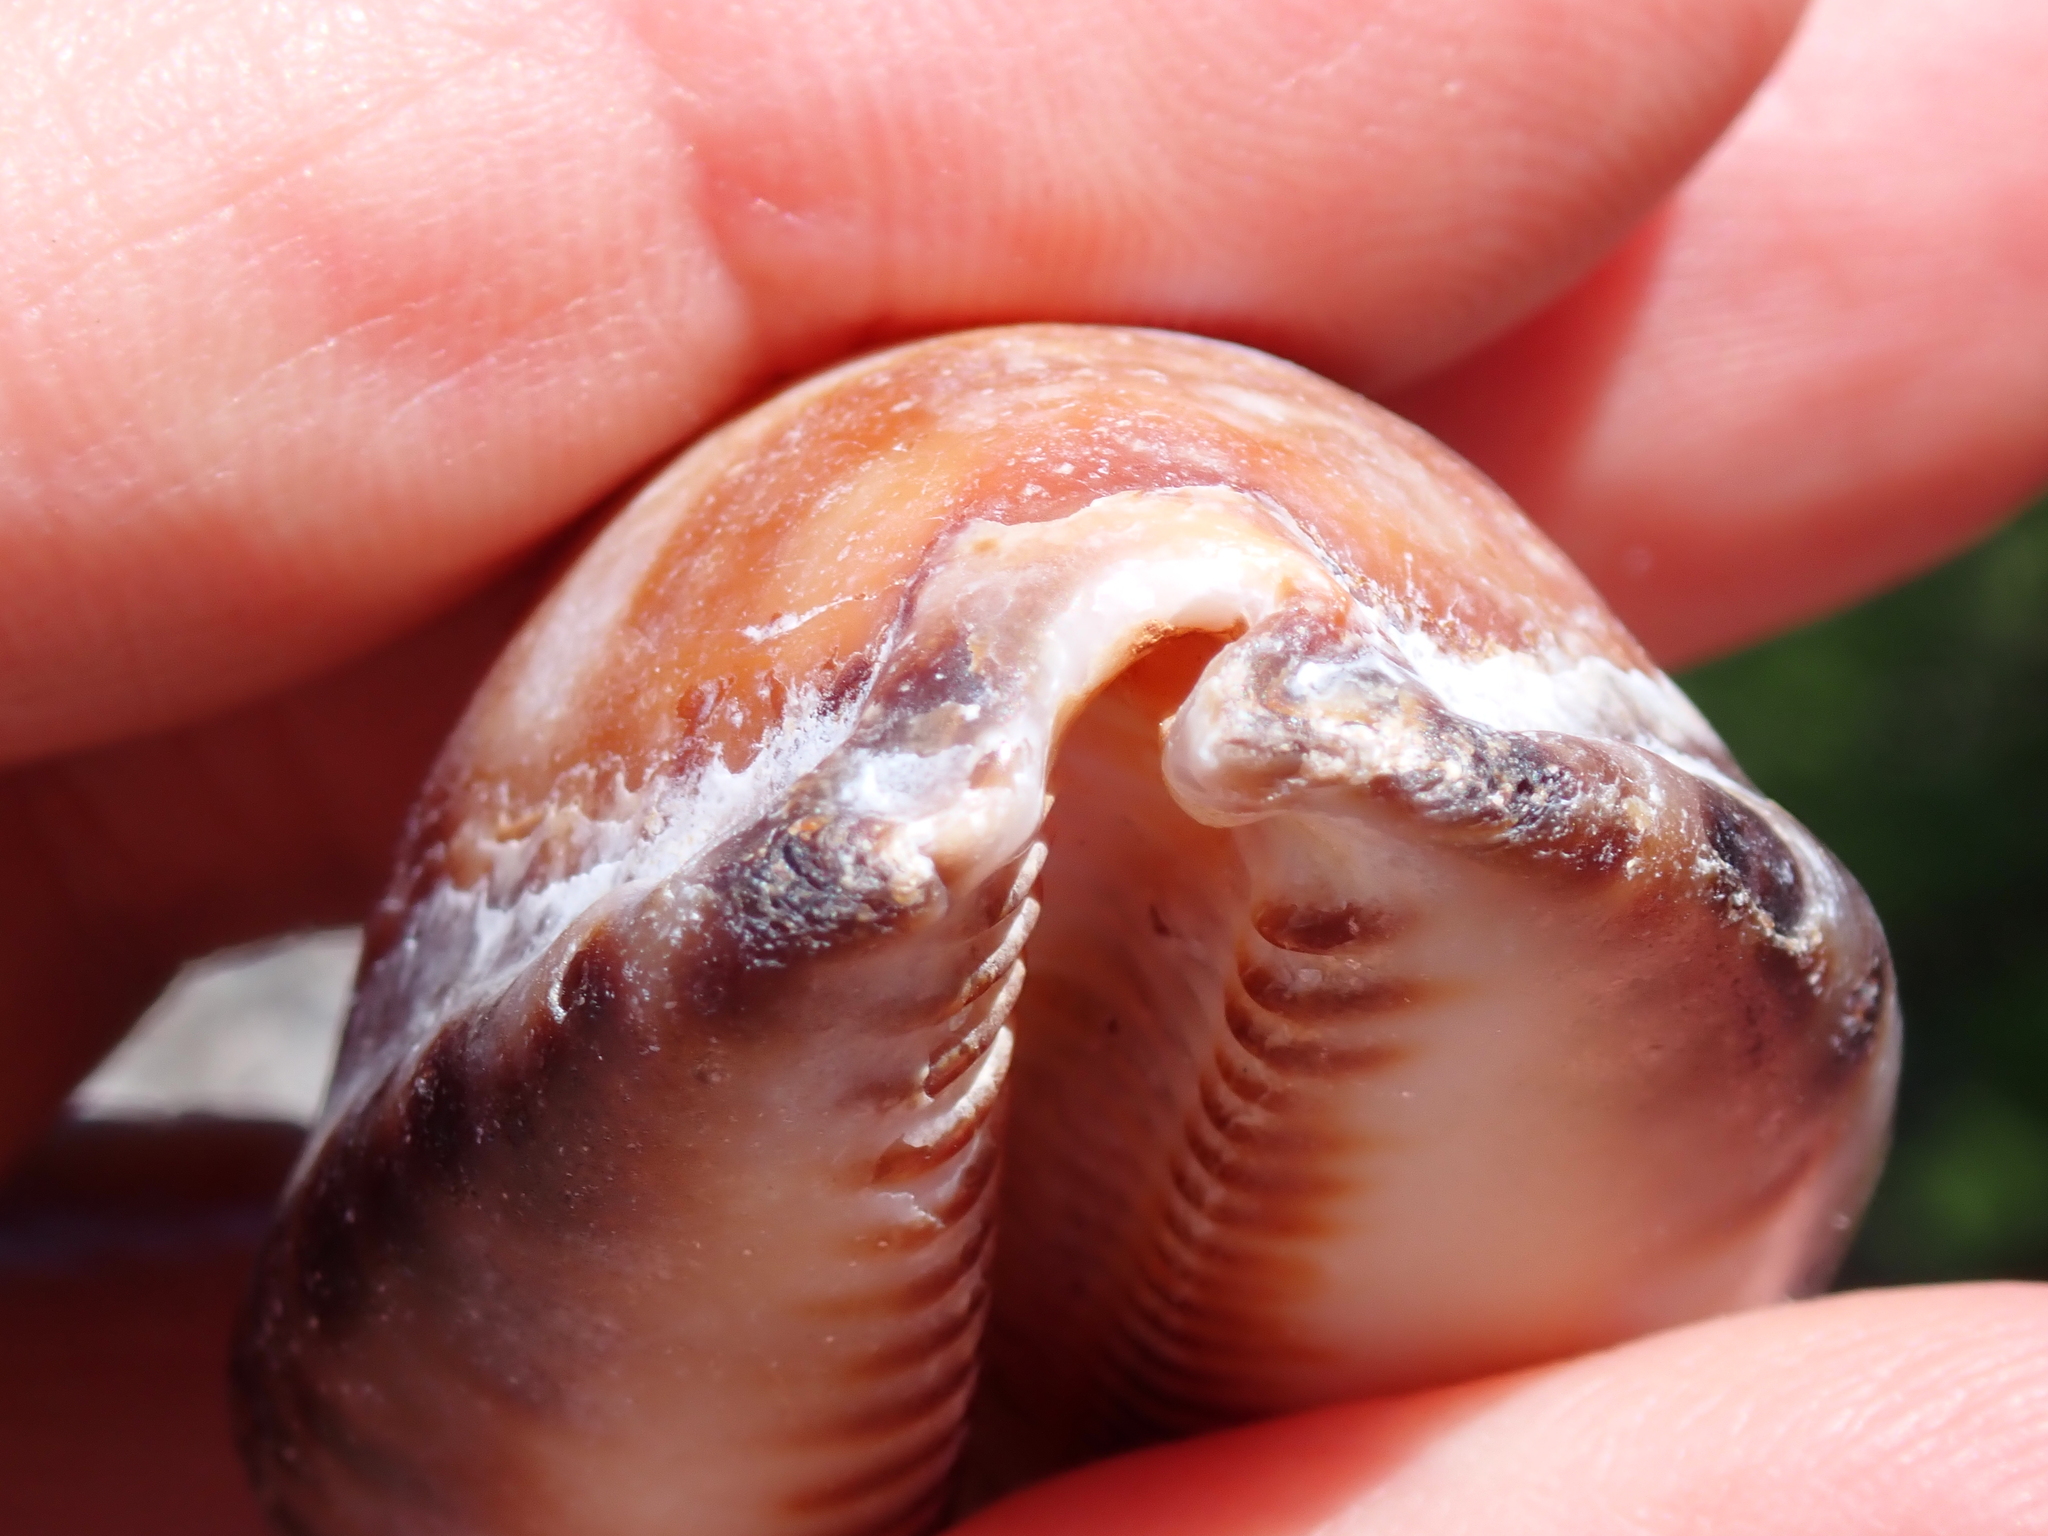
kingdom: Animalia
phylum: Mollusca
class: Gastropoda
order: Littorinimorpha
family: Cypraeidae
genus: Mauritia
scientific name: Mauritia maculifera
